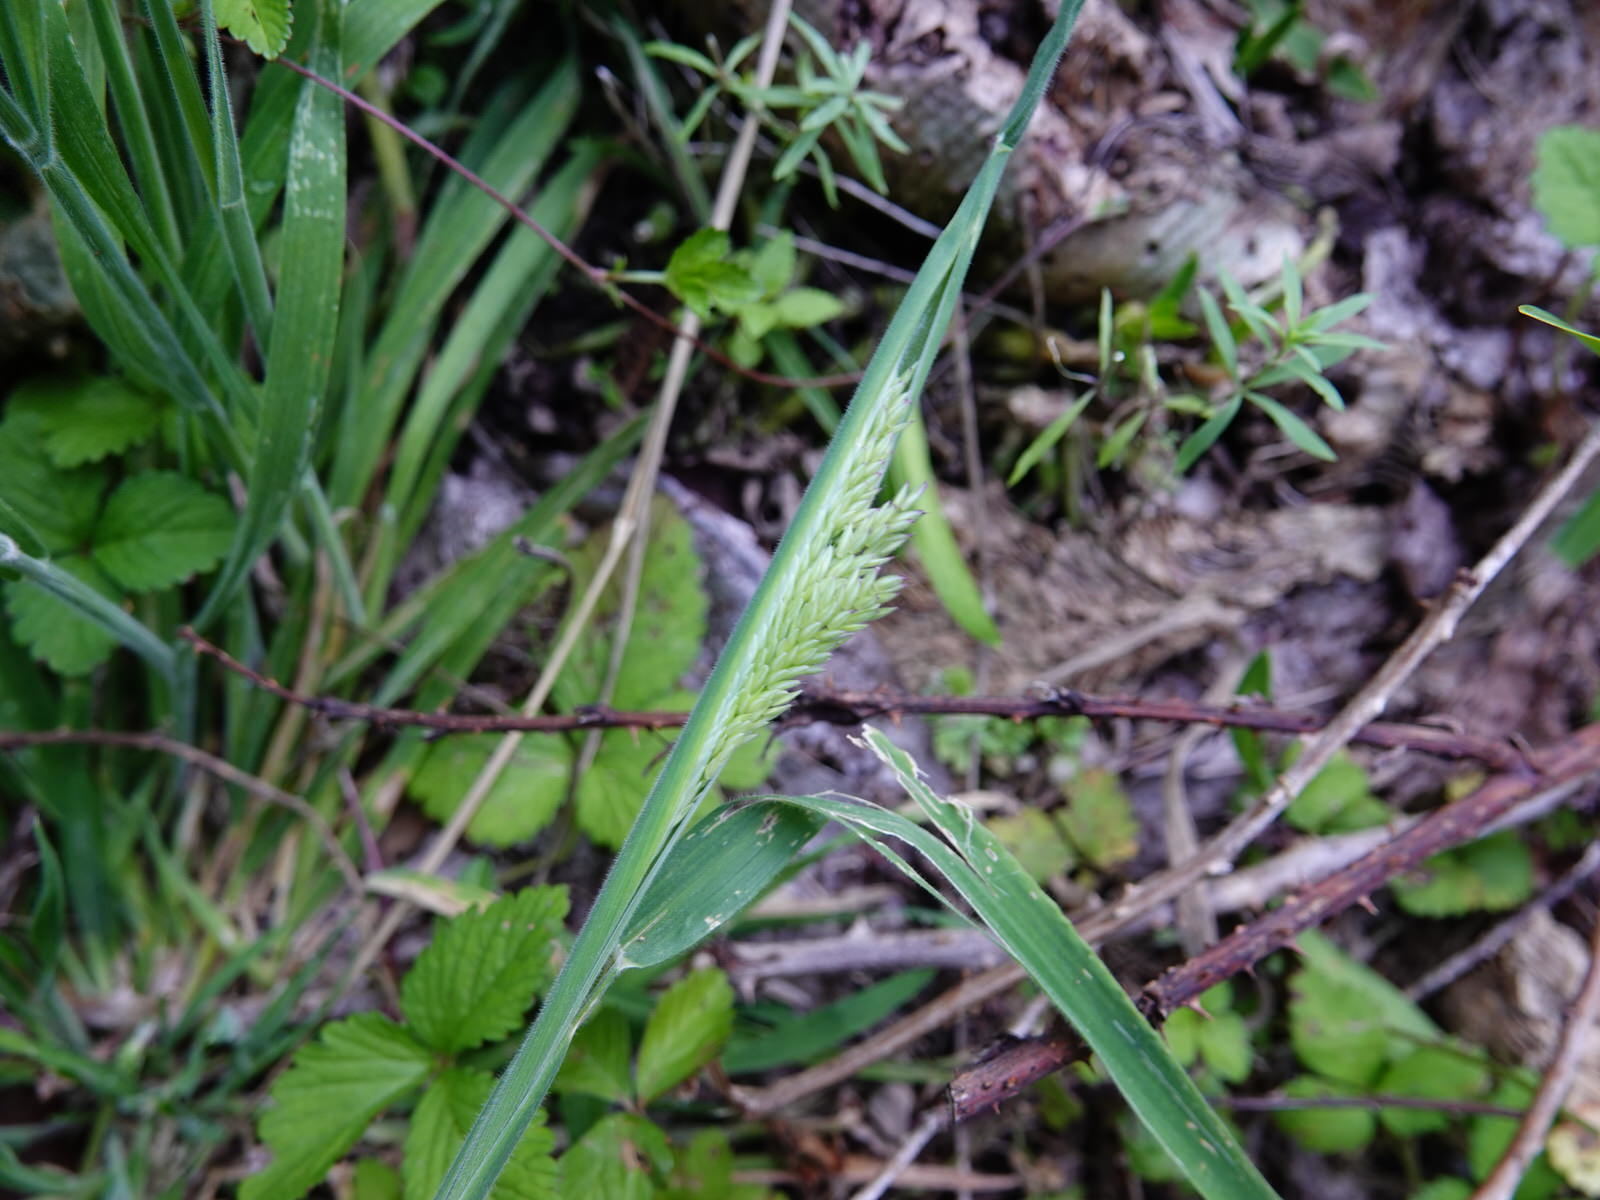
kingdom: Plantae
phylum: Tracheophyta
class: Liliopsida
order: Poales
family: Poaceae
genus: Holcus
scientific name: Holcus lanatus
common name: Yorkshire-fog
